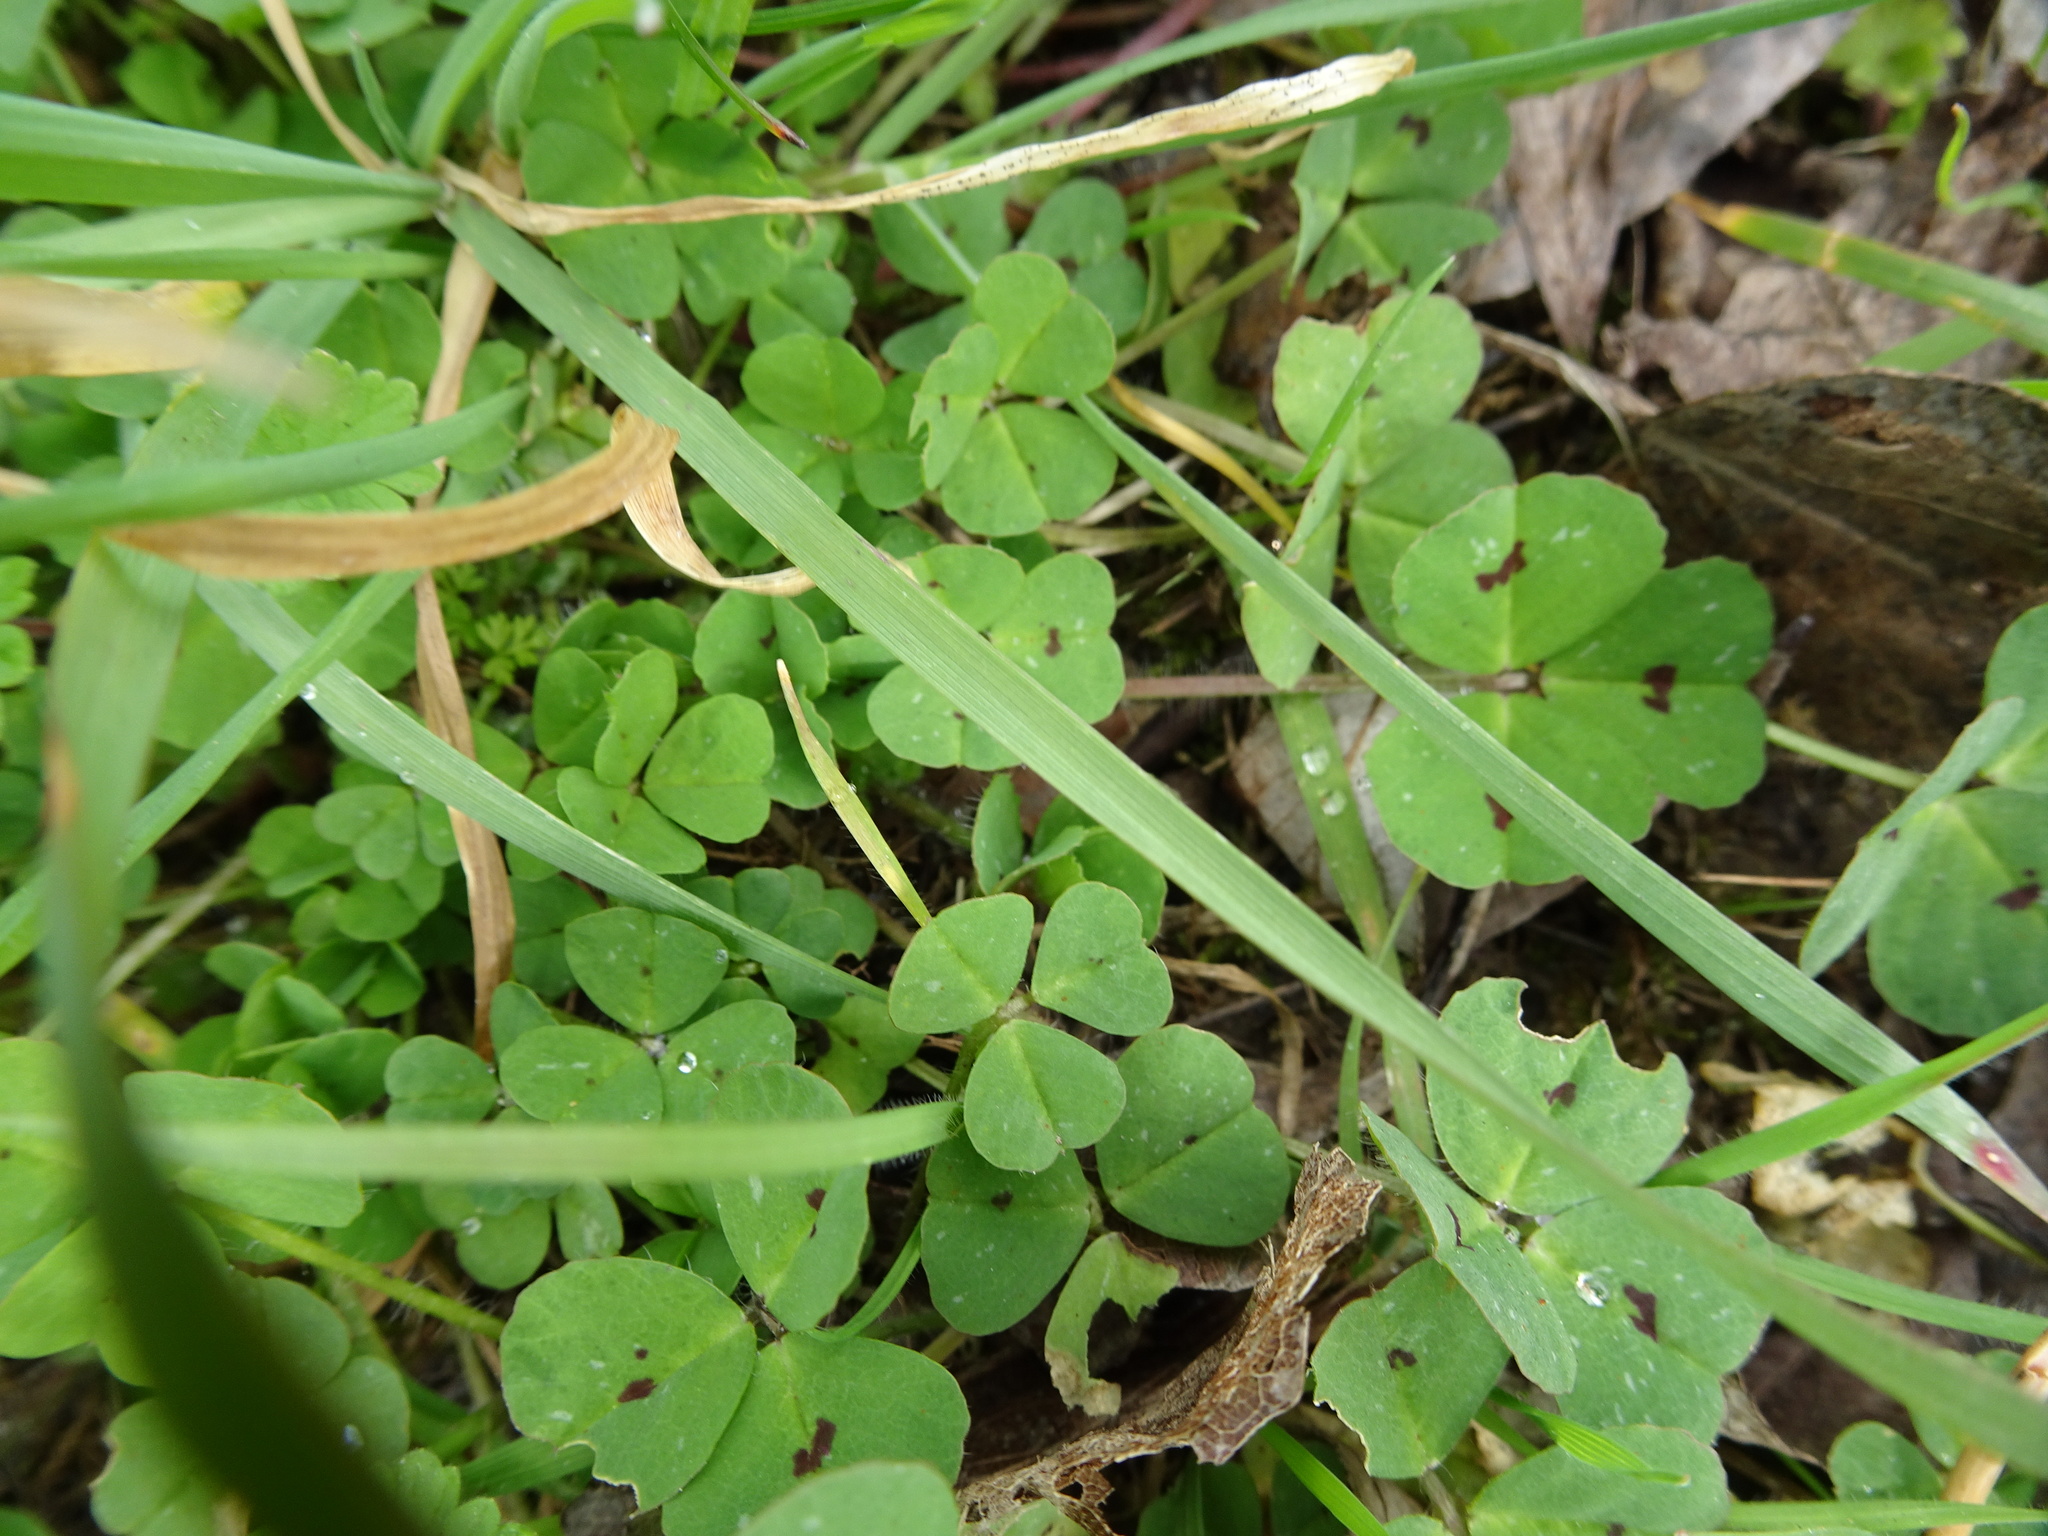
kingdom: Plantae
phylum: Tracheophyta
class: Magnoliopsida
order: Fabales
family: Fabaceae
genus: Medicago
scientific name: Medicago arabica
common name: Spotted medick
